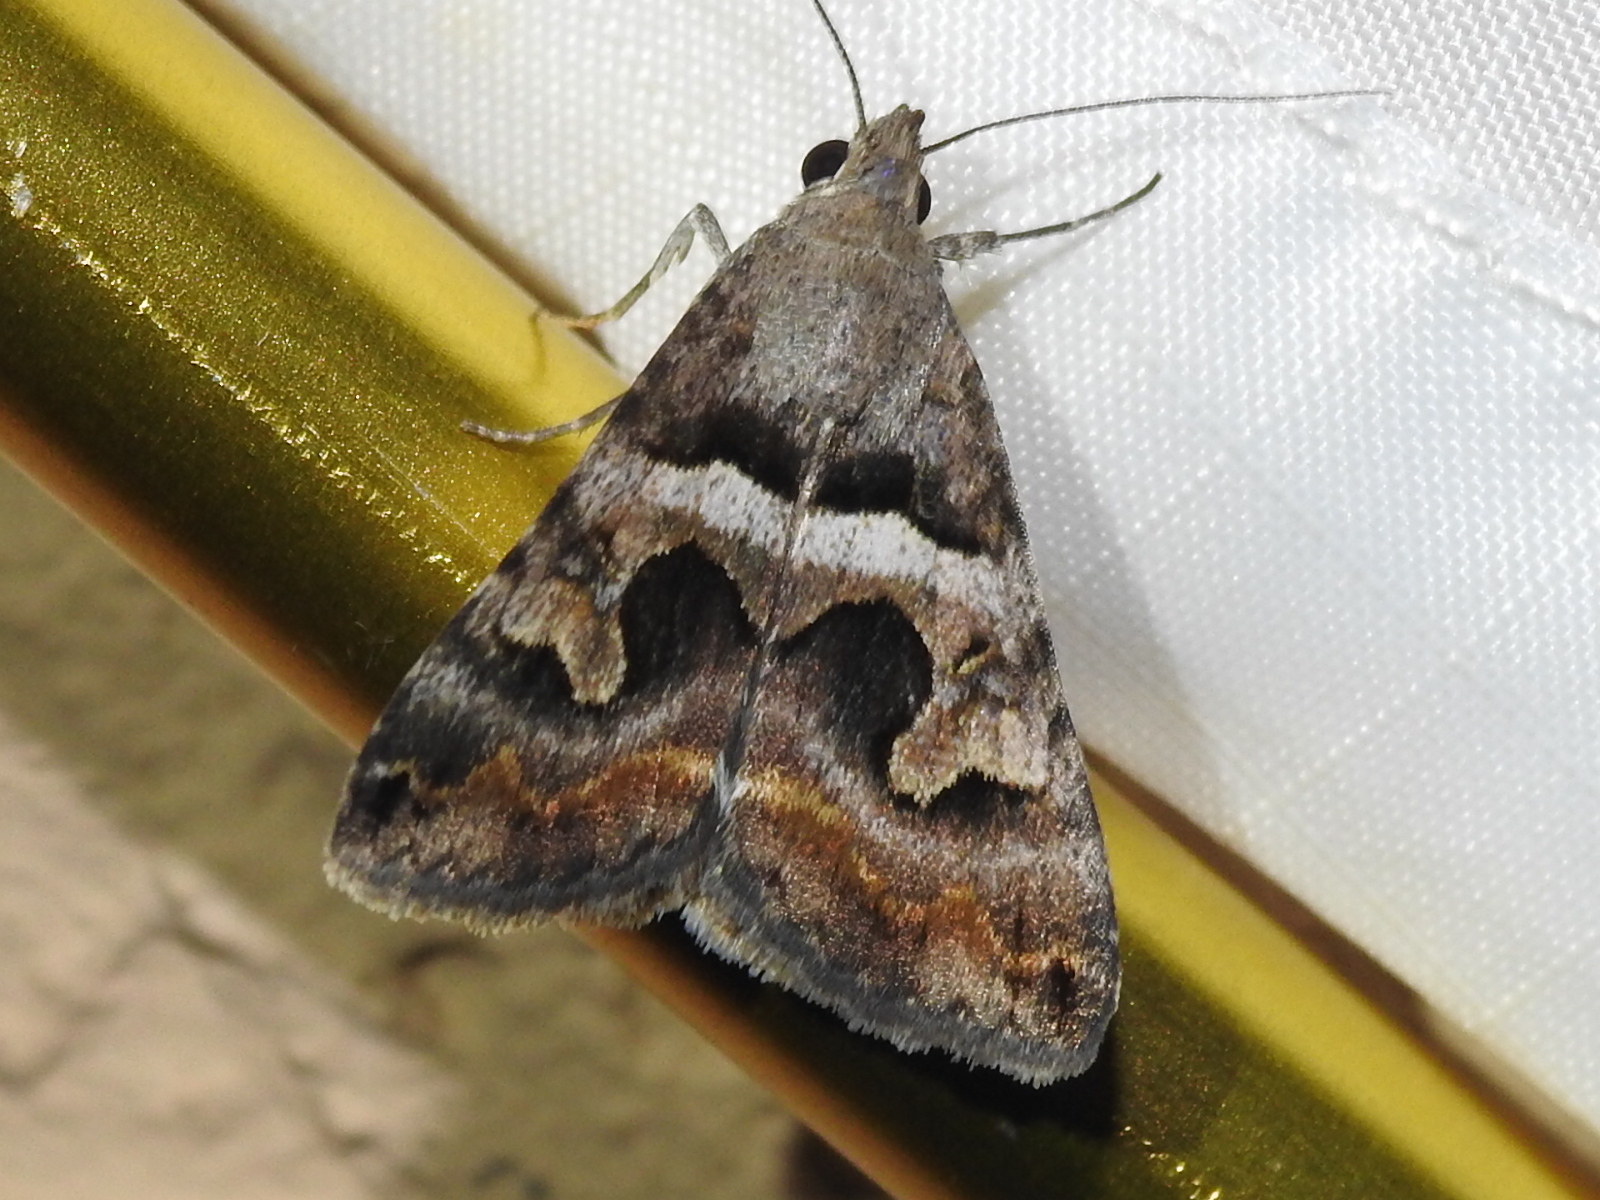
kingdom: Animalia
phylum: Arthropoda
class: Insecta
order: Lepidoptera
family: Erebidae
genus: Bulia
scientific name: Bulia deducta
